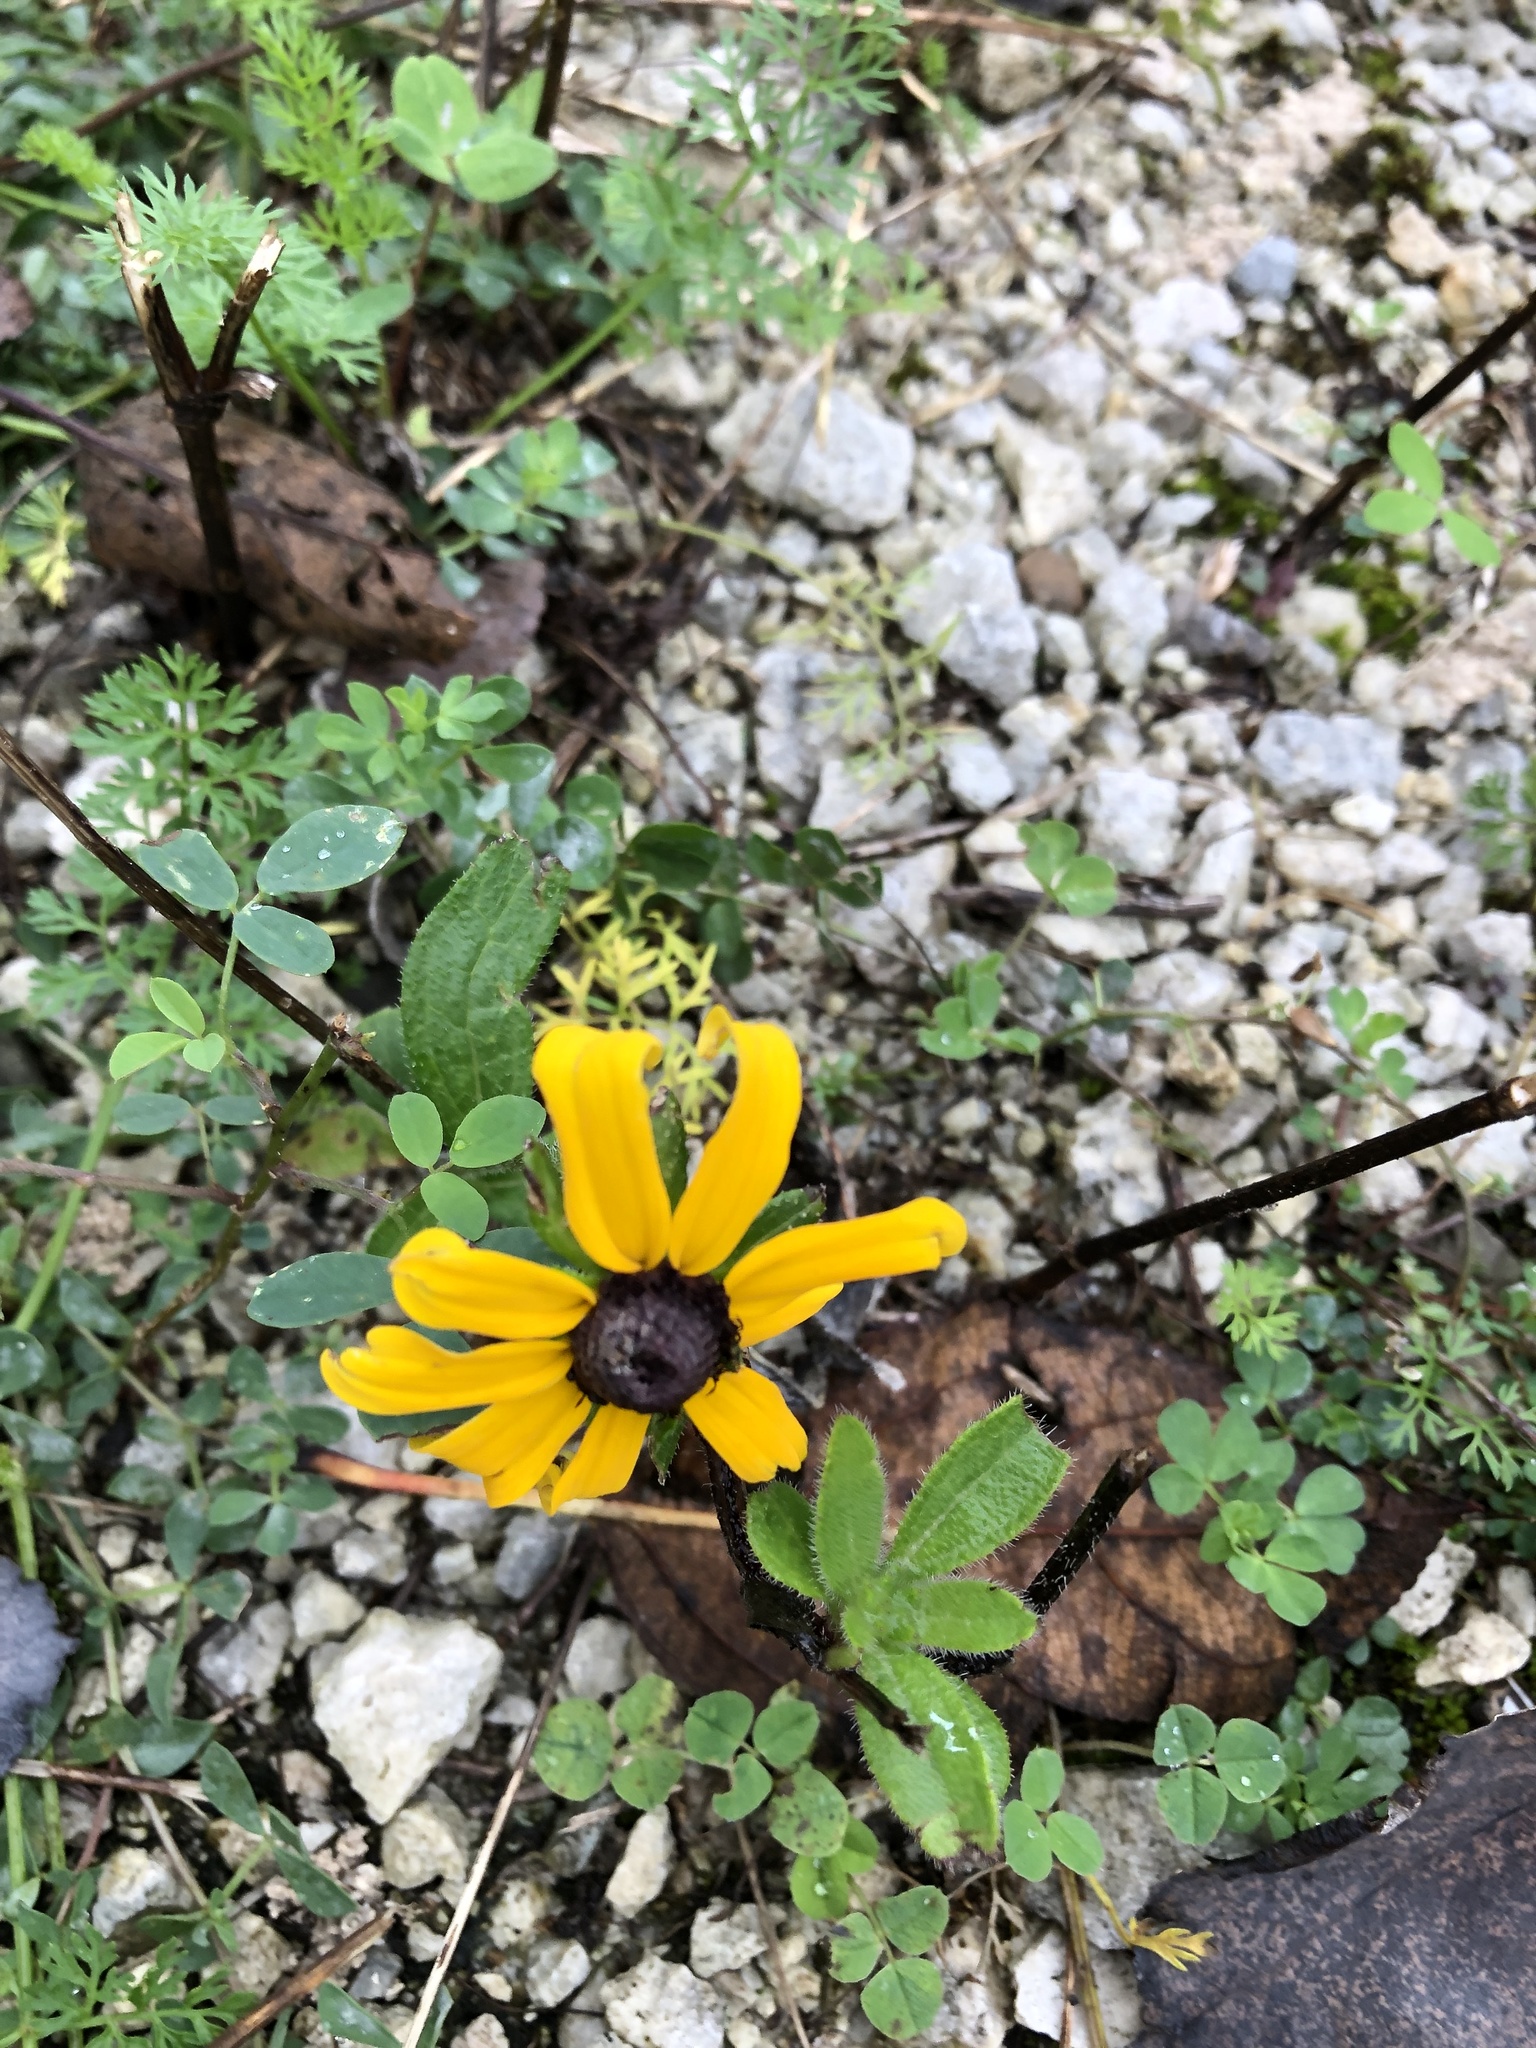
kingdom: Plantae
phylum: Tracheophyta
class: Magnoliopsida
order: Asterales
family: Asteraceae
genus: Rudbeckia
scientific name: Rudbeckia hirta
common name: Black-eyed-susan
